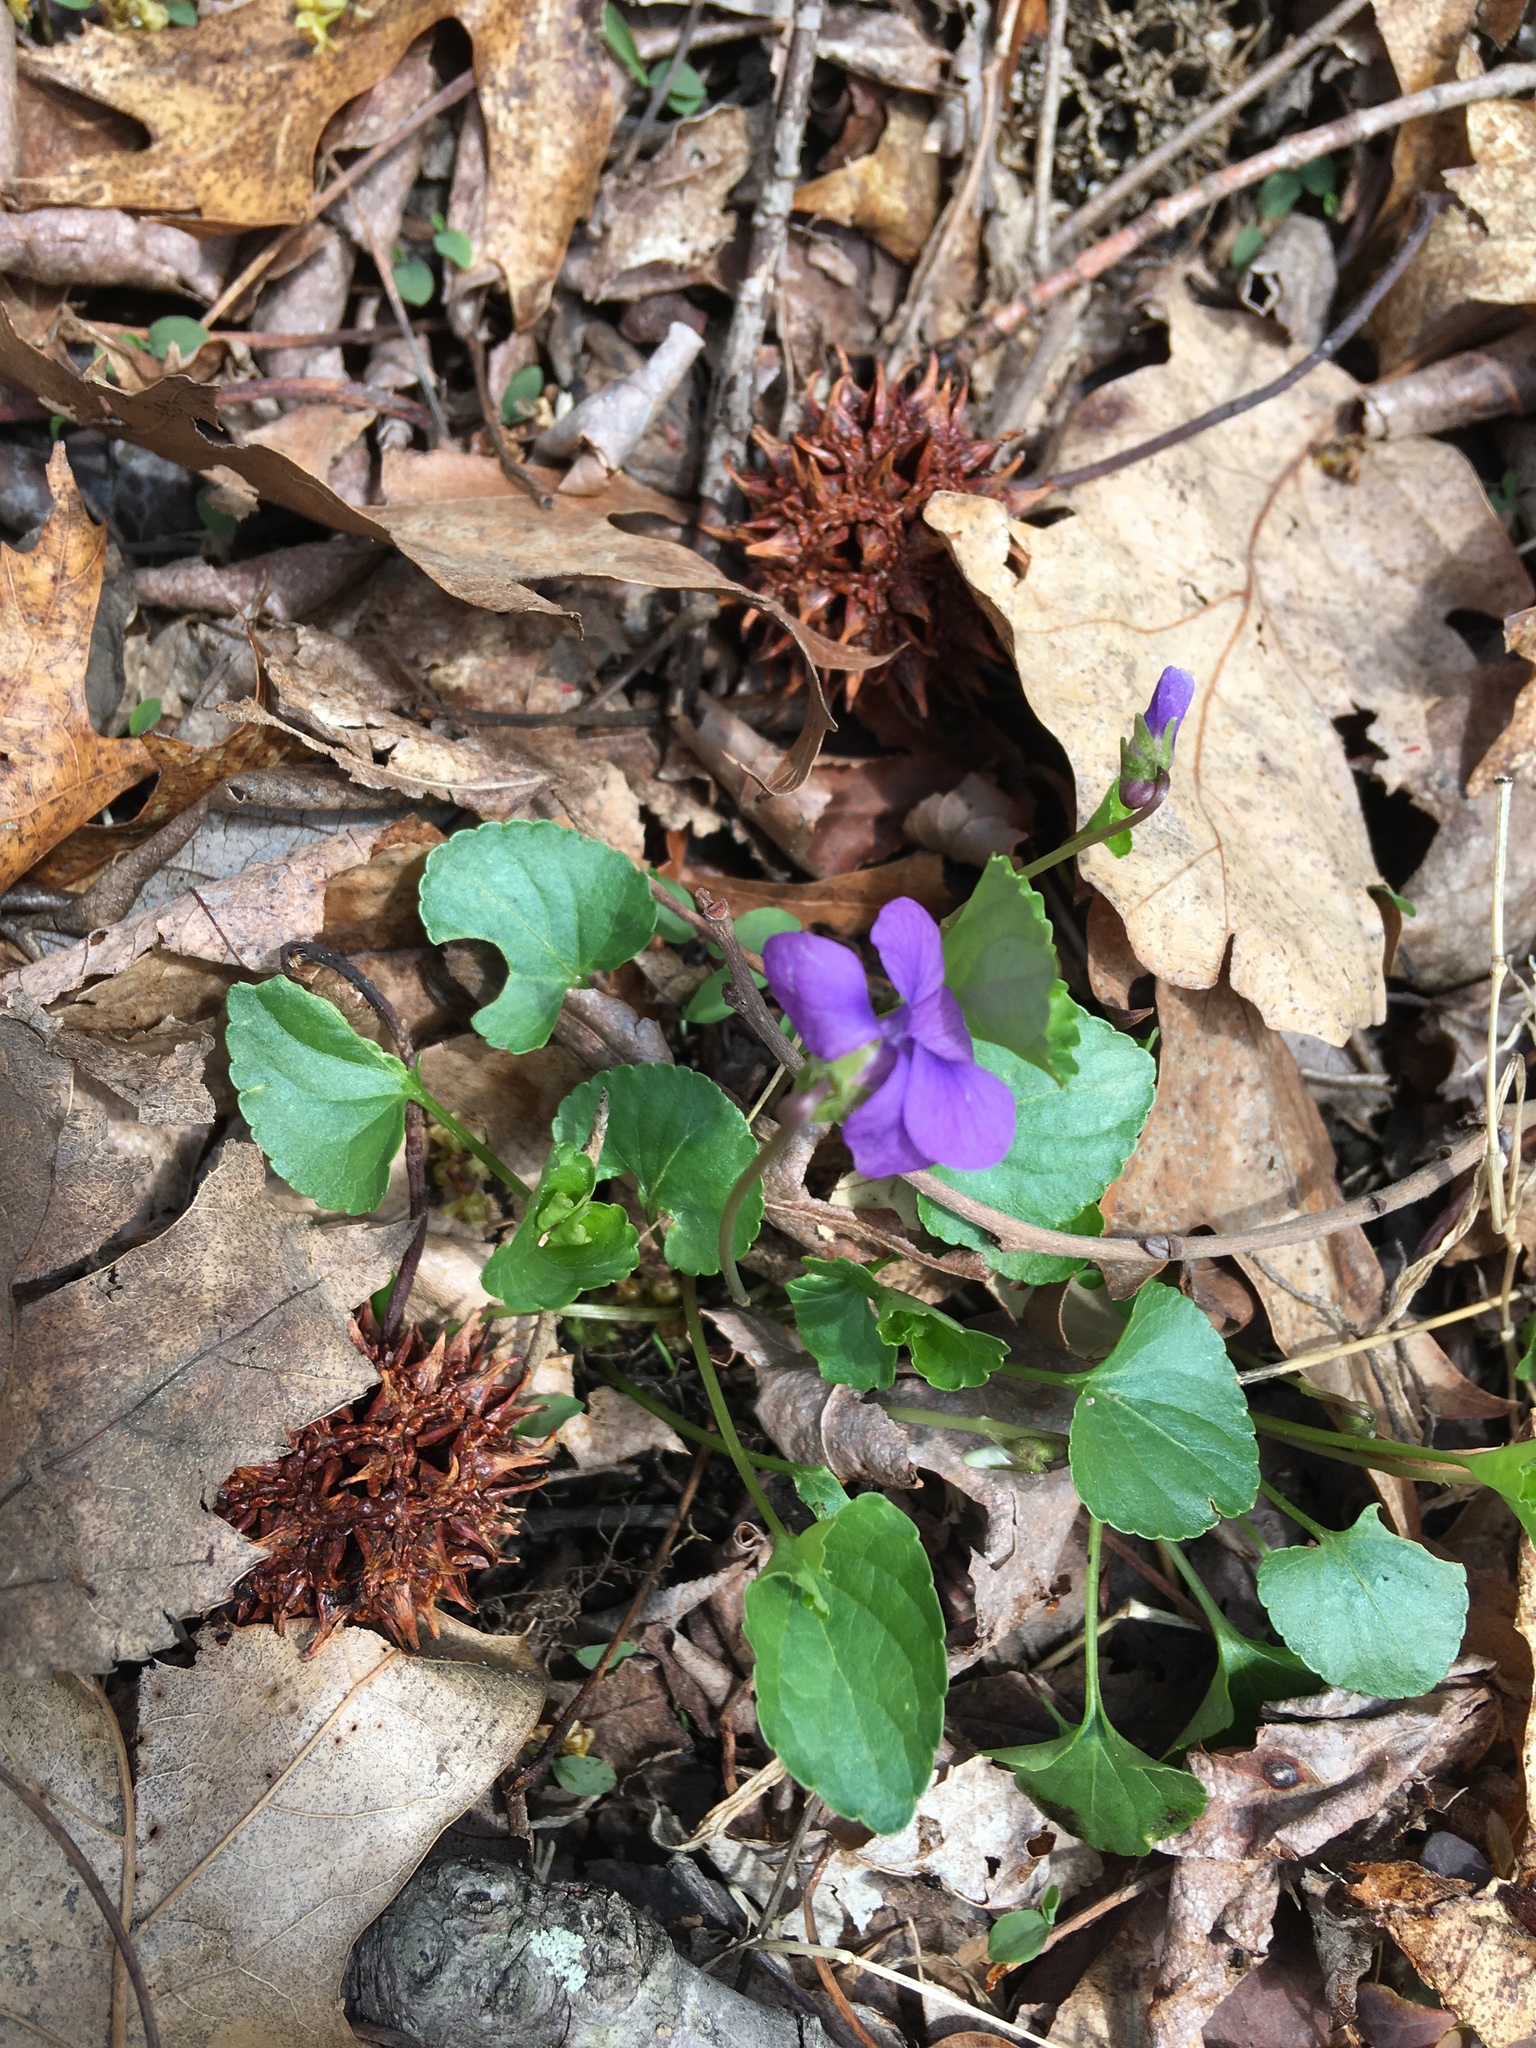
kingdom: Plantae
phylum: Tracheophyta
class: Magnoliopsida
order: Malpighiales
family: Violaceae
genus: Viola
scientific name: Viola sororia
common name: Dooryard violet
